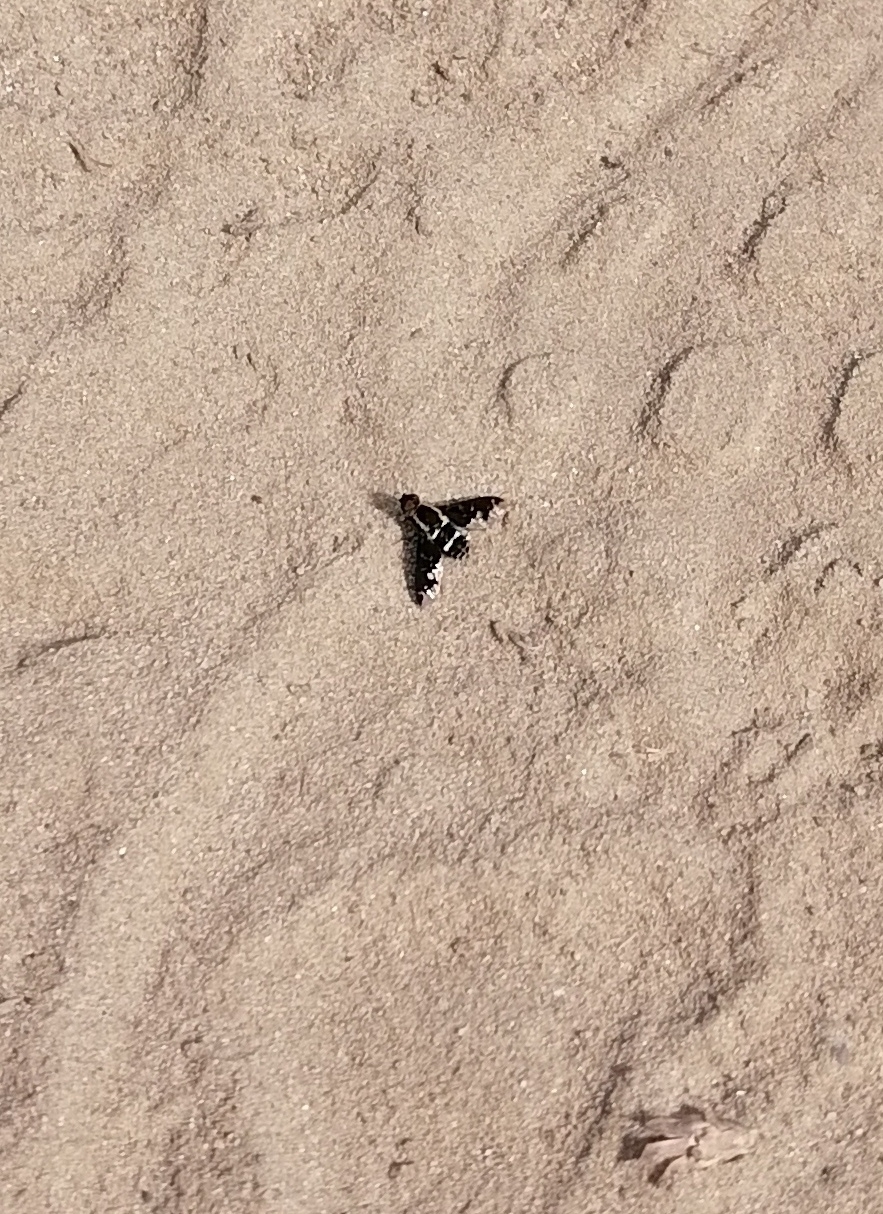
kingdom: Animalia
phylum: Arthropoda
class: Insecta
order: Diptera
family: Bombyliidae
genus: Hemipenthes
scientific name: Hemipenthes maura
